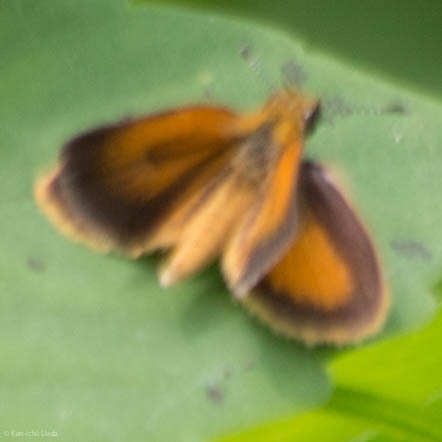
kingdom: Animalia
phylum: Arthropoda
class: Insecta
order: Lepidoptera
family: Hesperiidae
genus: Ancyloxypha
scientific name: Ancyloxypha numitor
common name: Least skipper
